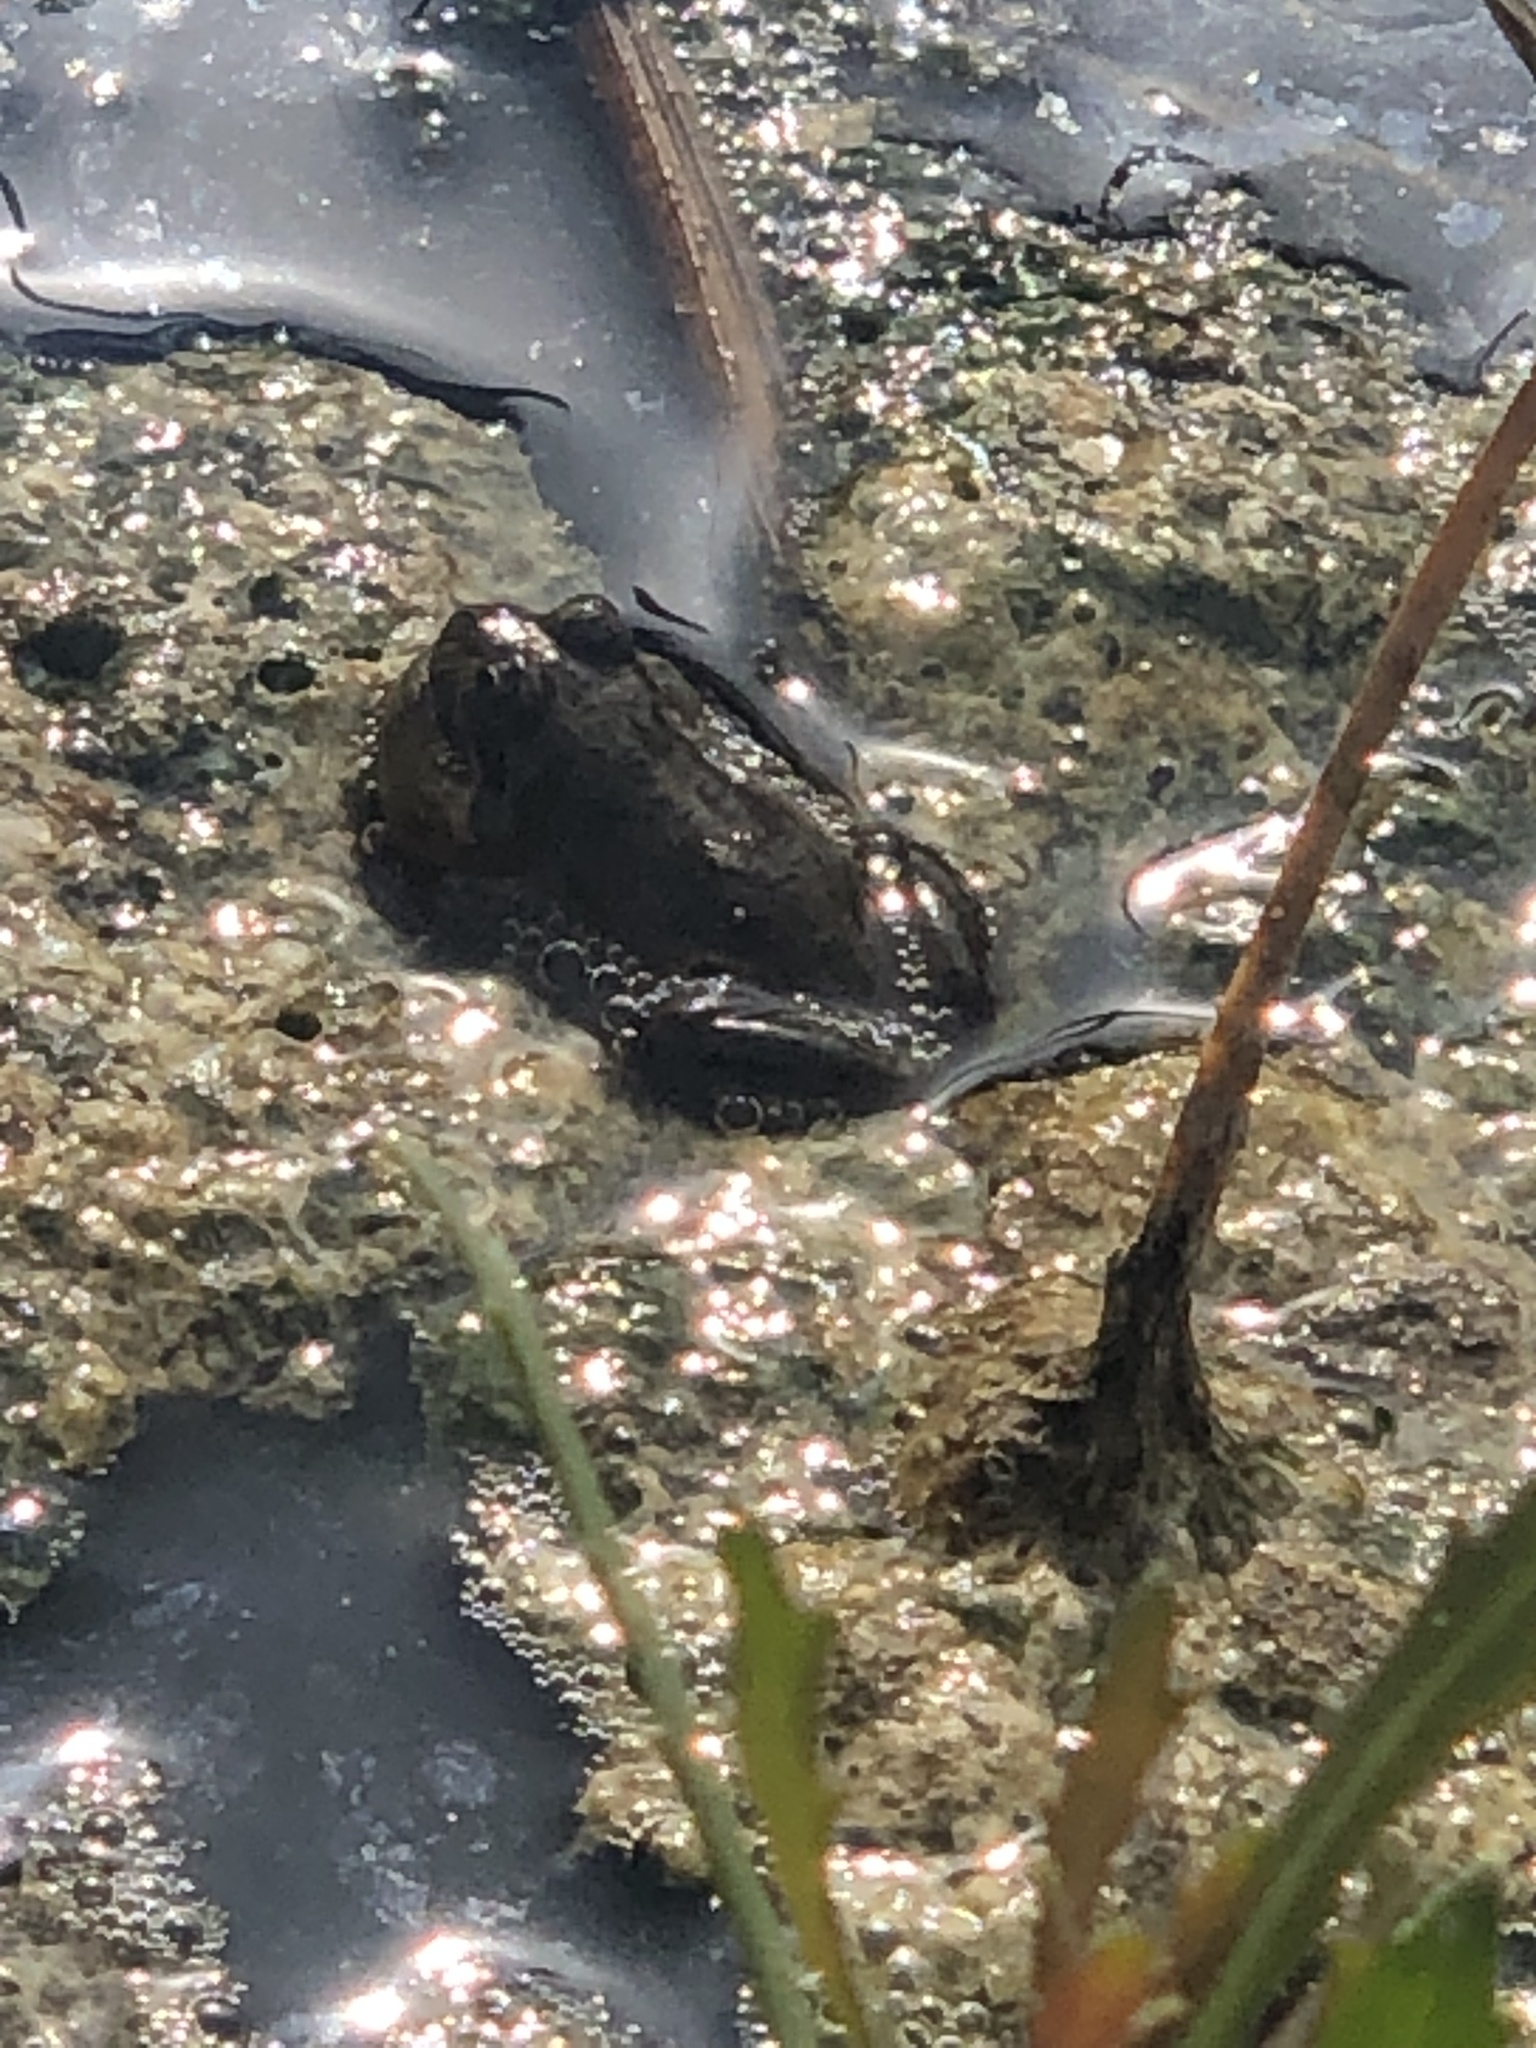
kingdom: Animalia
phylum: Chordata
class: Amphibia
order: Anura
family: Leptodactylidae
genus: Pleurodema
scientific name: Pleurodema thaul
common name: Chile four-eyed frog
